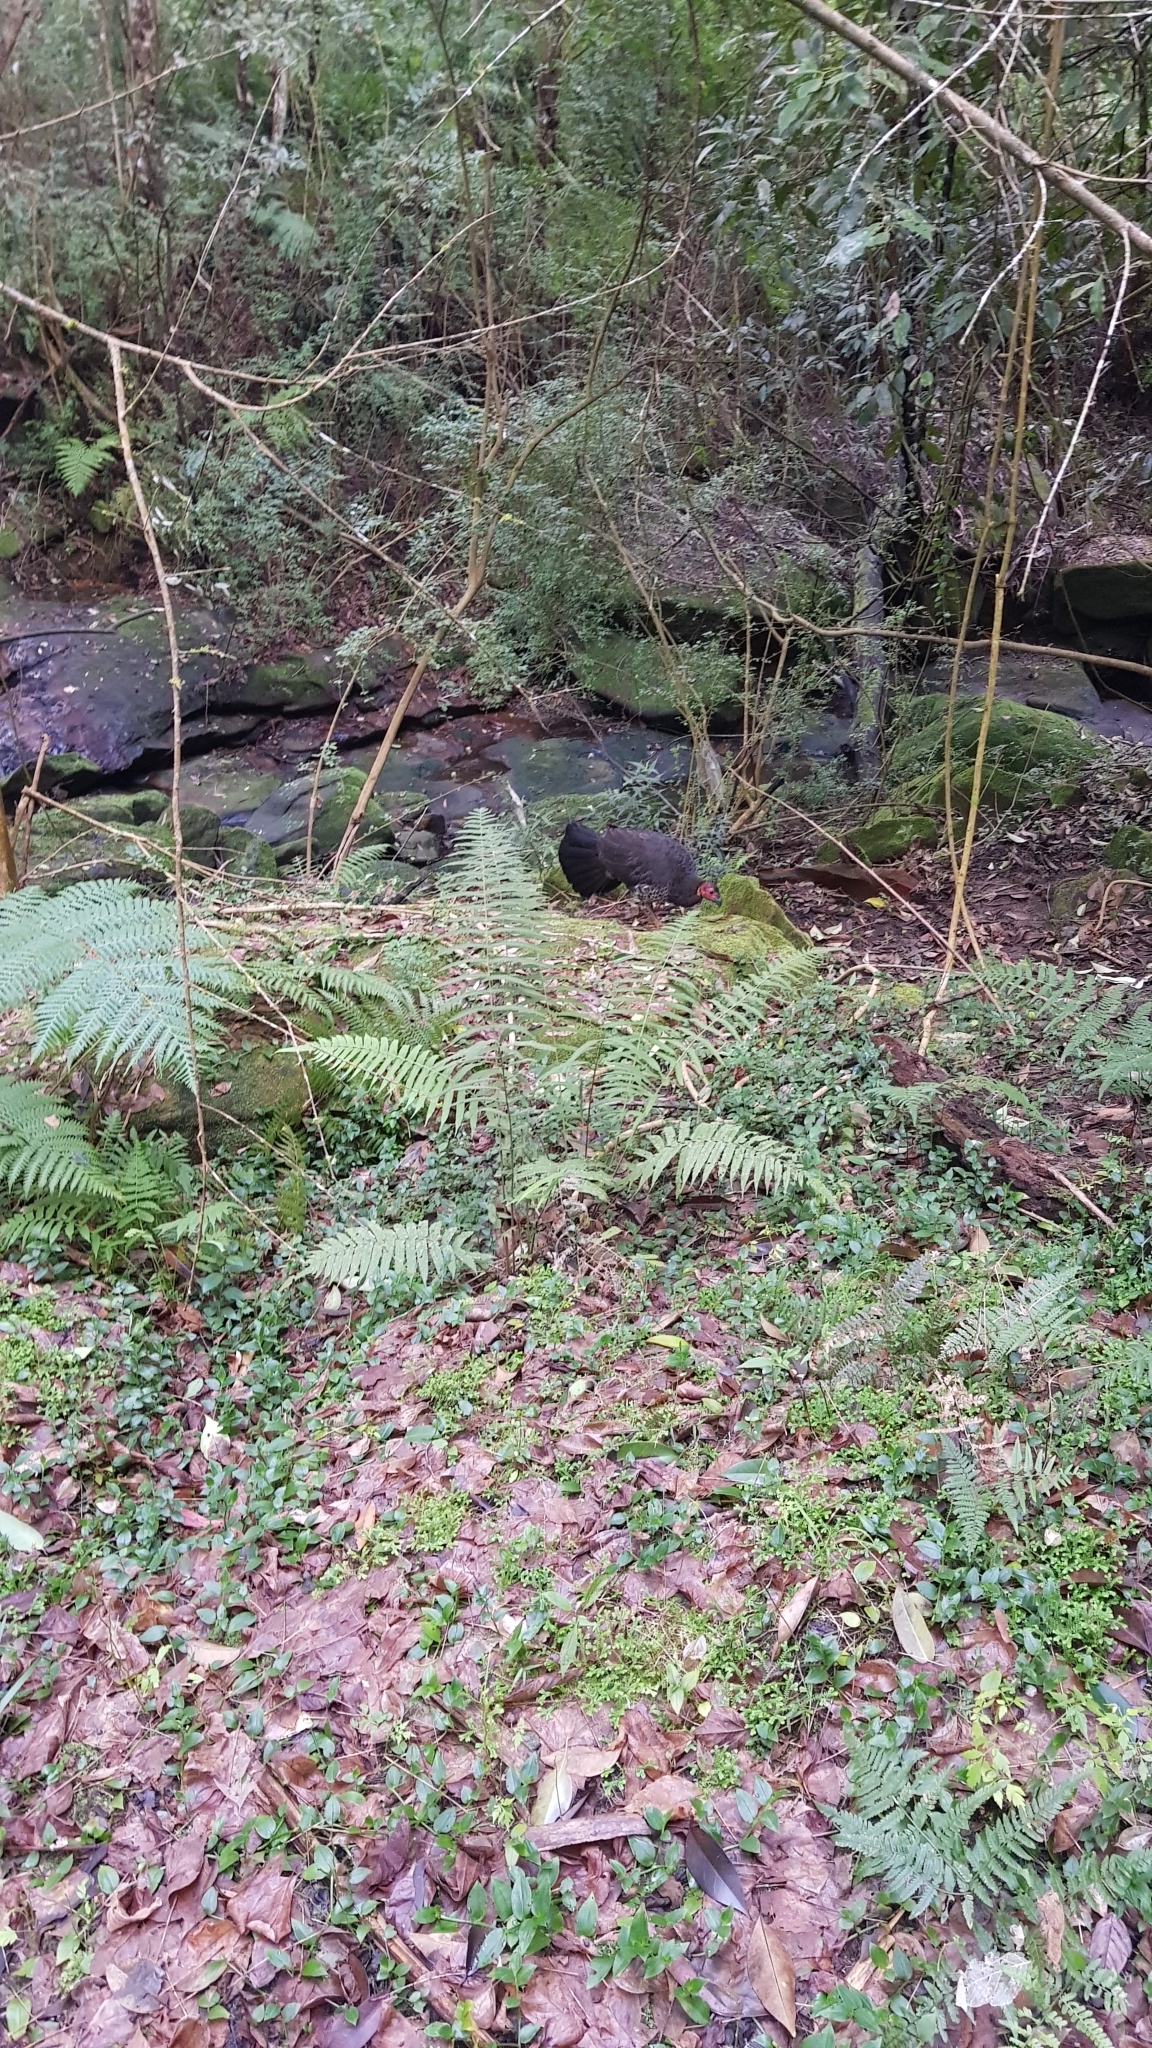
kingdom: Animalia
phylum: Chordata
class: Aves
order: Galliformes
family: Megapodiidae
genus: Alectura
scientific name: Alectura lathami
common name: Australian brushturkey
